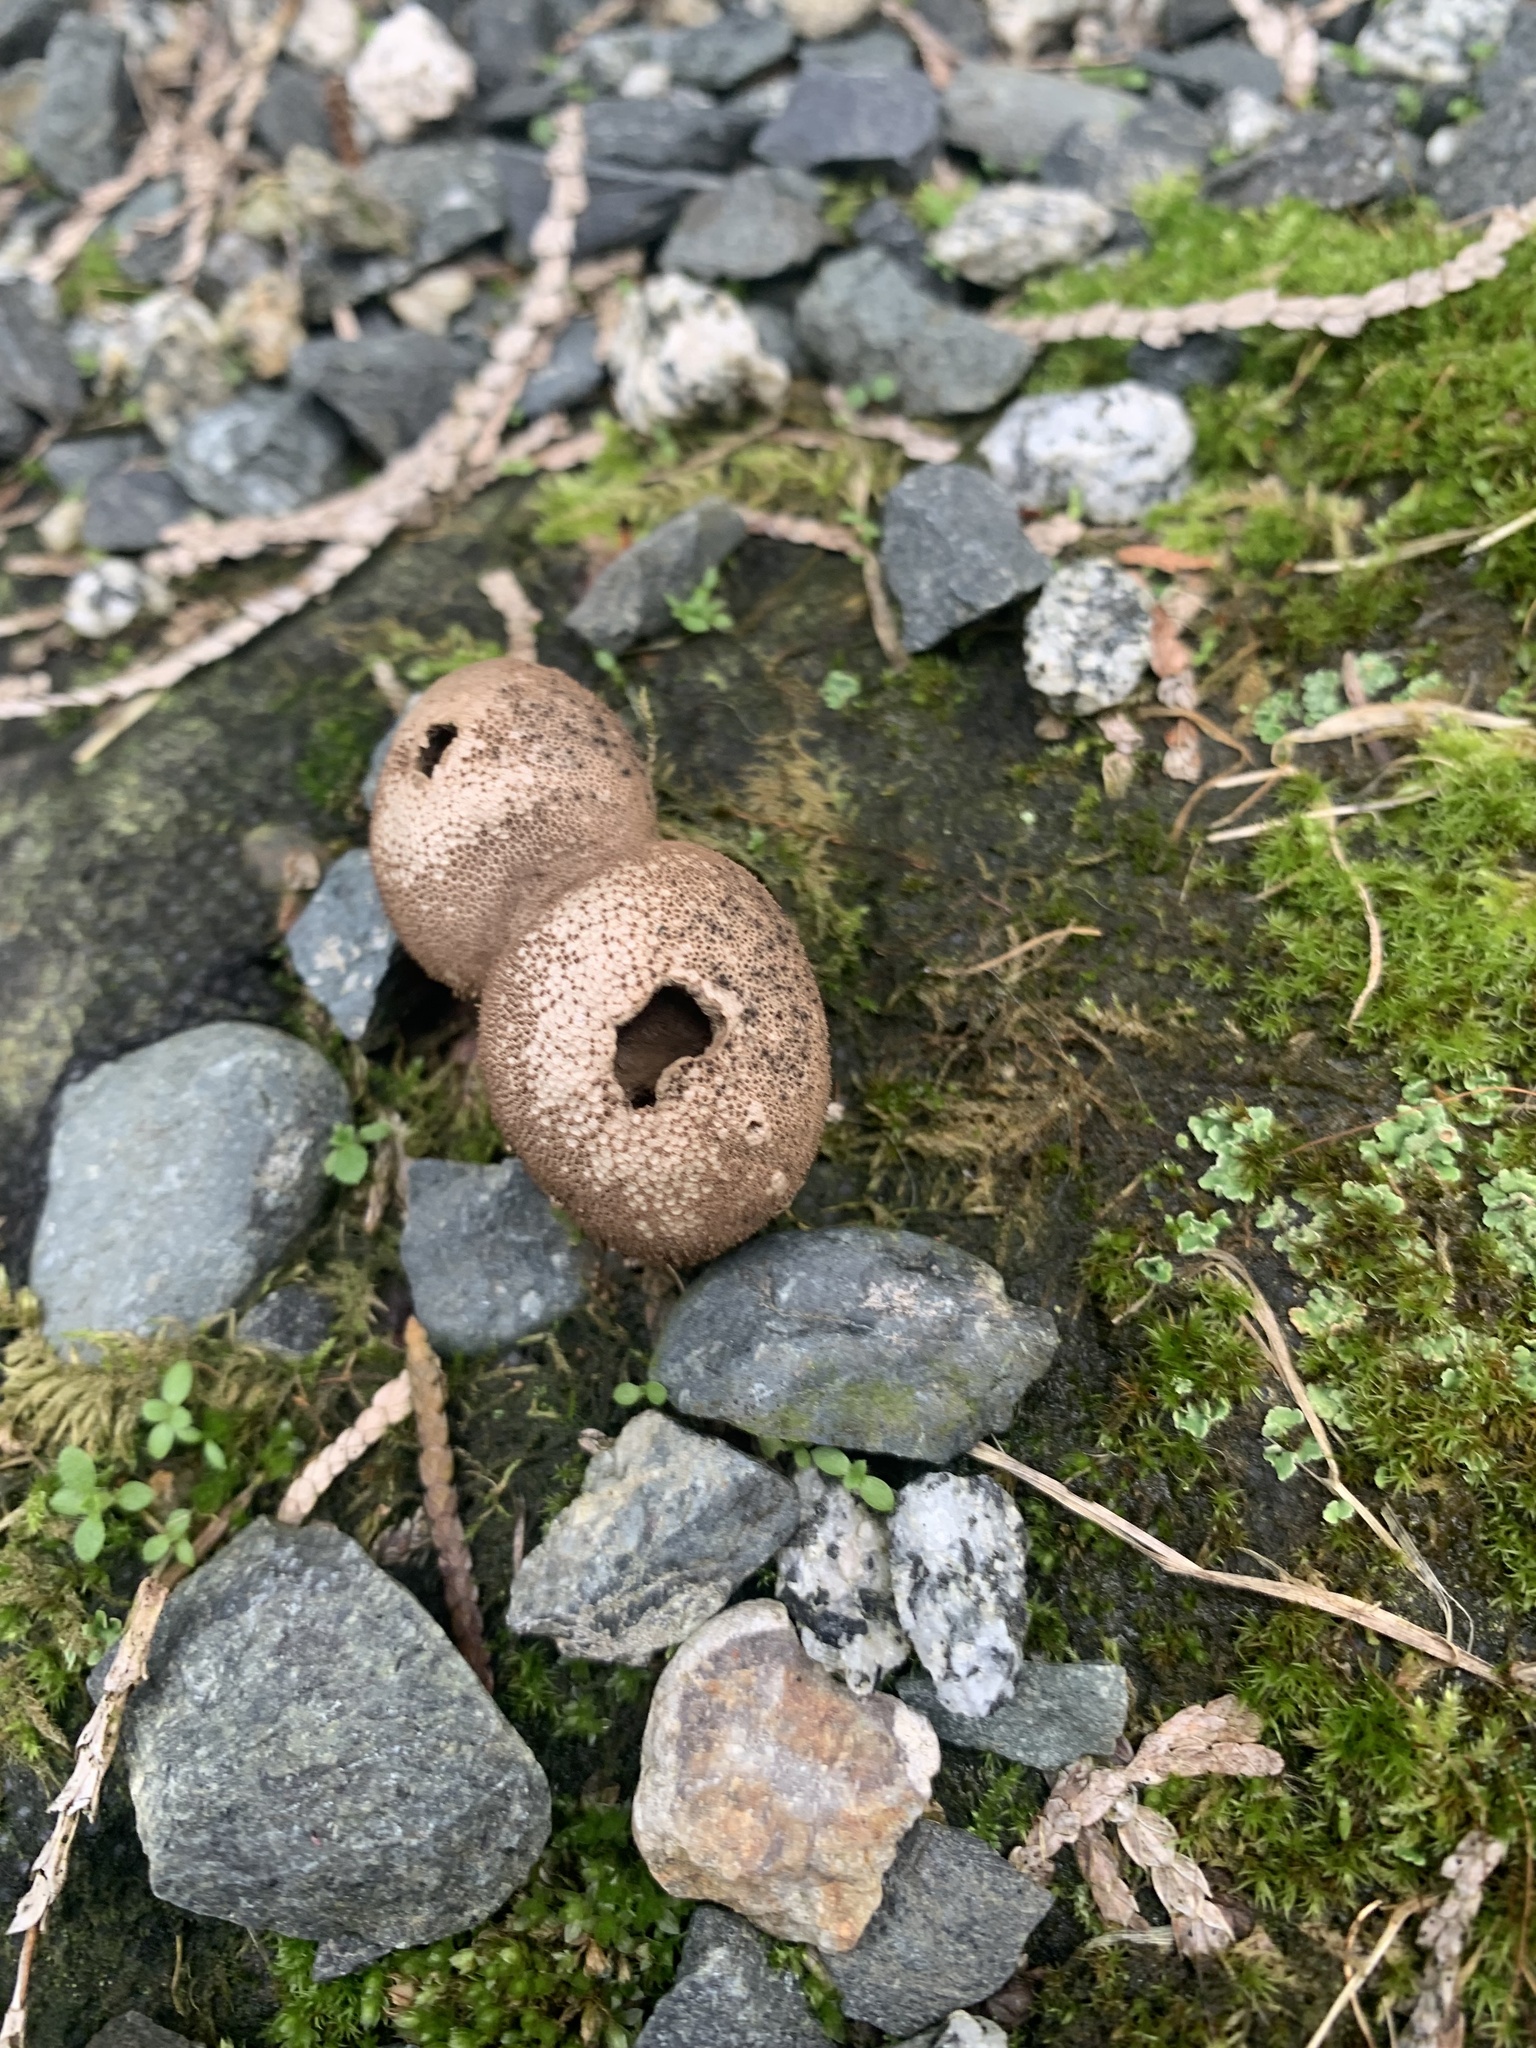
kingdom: Fungi
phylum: Basidiomycota
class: Agaricomycetes
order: Agaricales
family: Lycoperdaceae
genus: Apioperdon
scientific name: Apioperdon pyriforme
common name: Pear-shaped puffball
